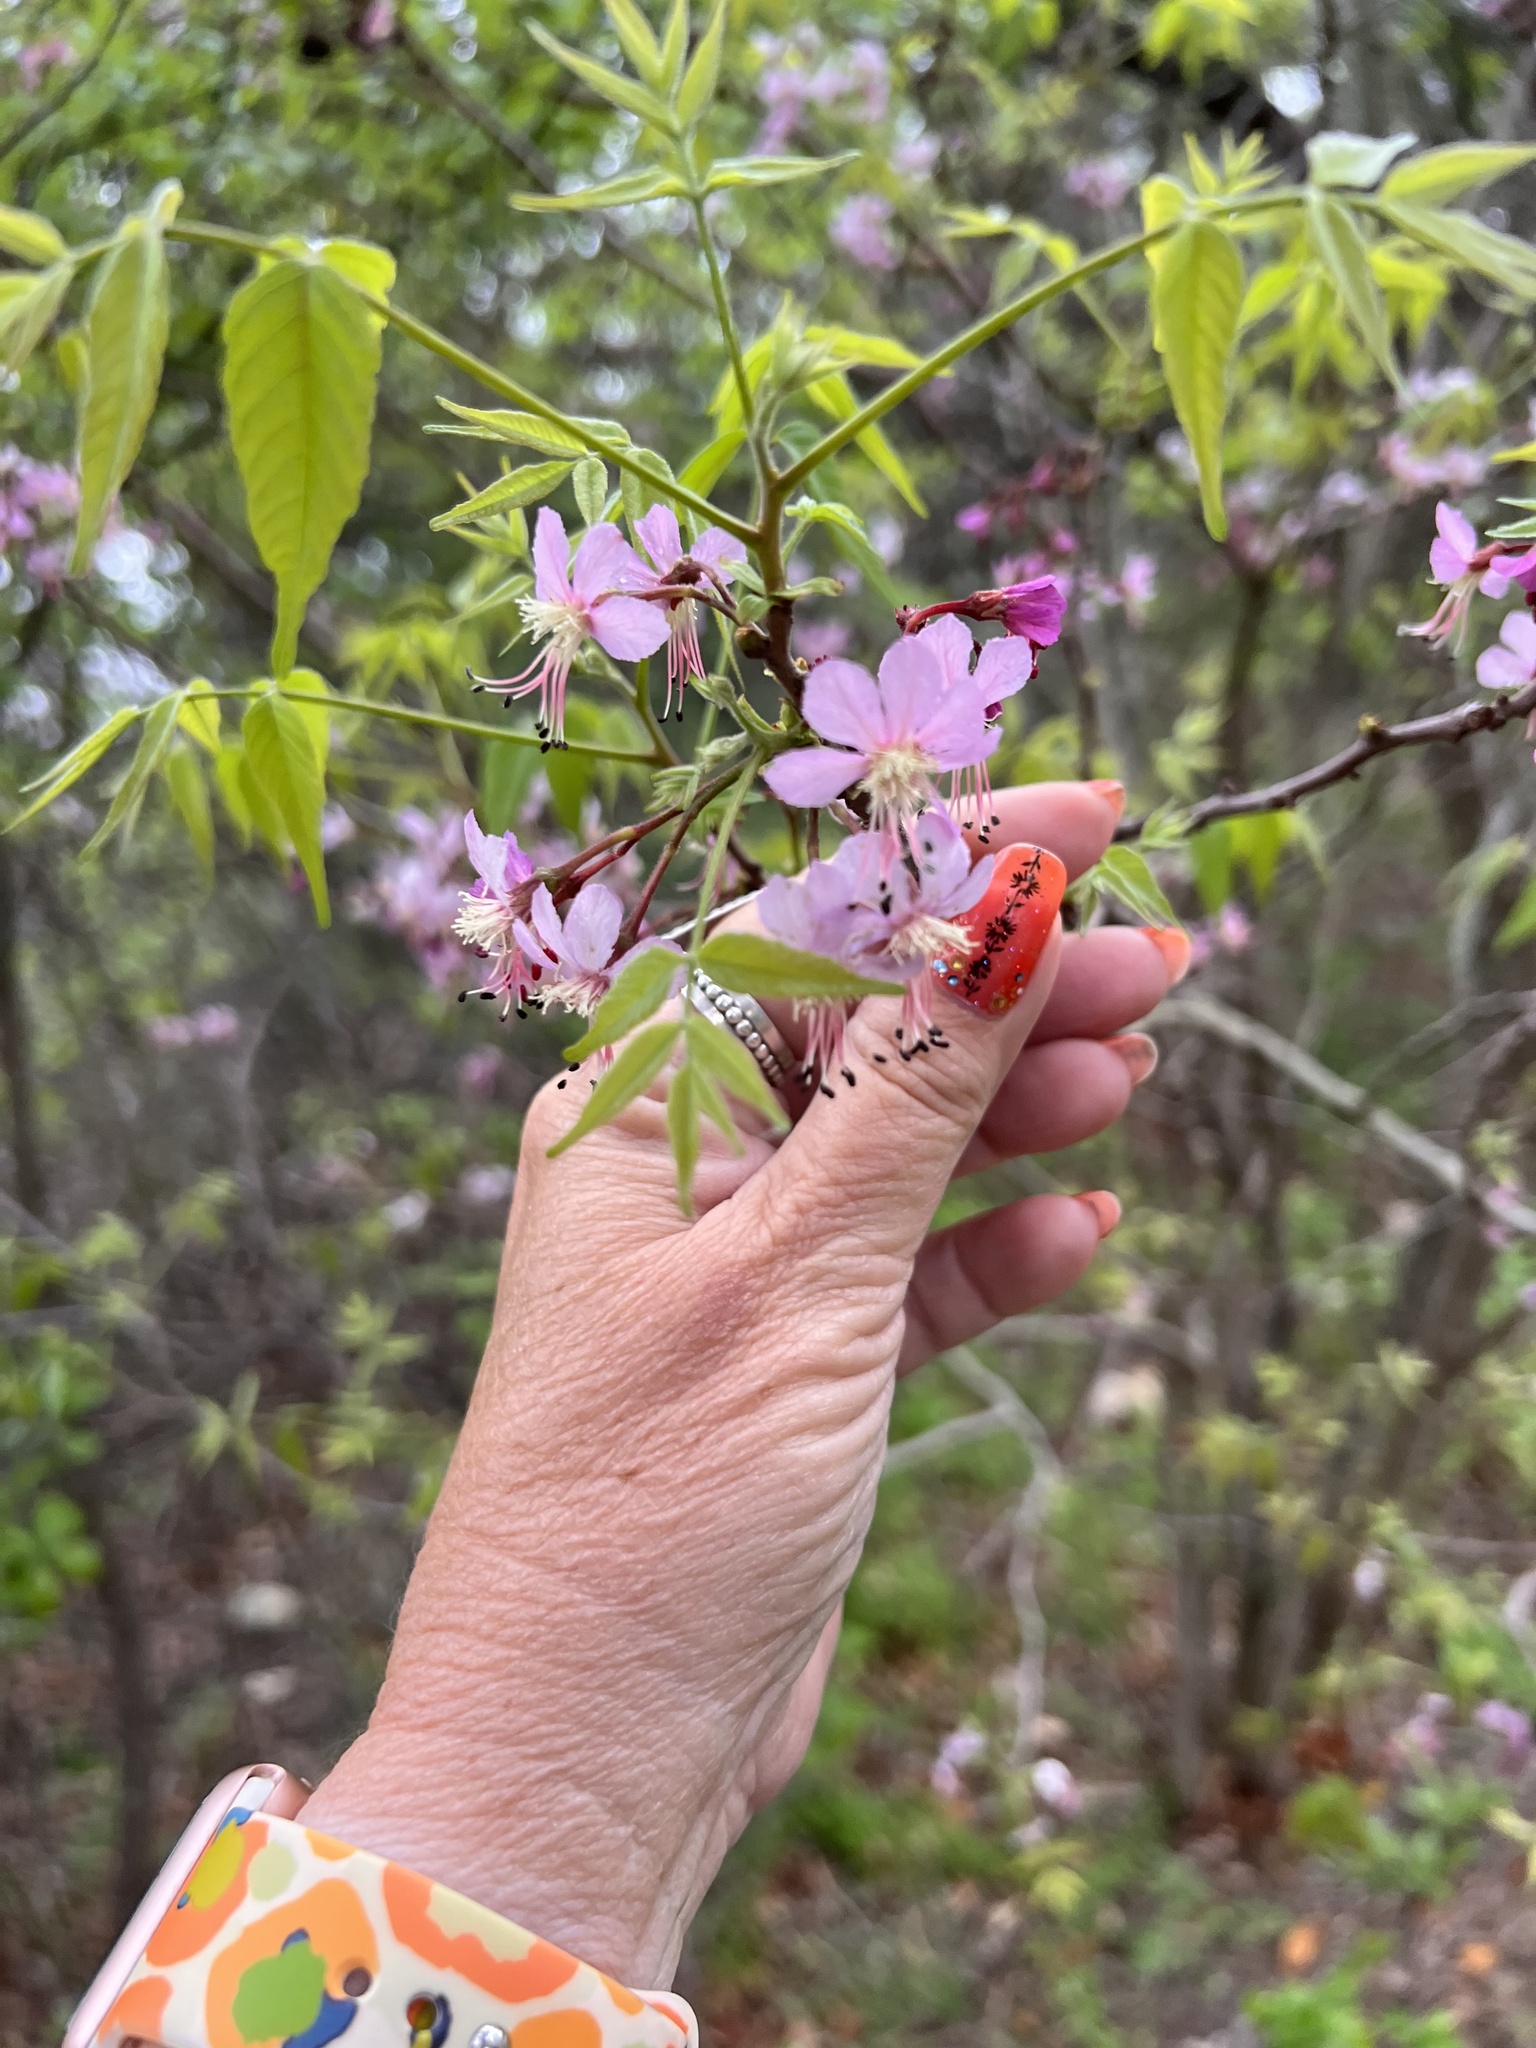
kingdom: Plantae
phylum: Tracheophyta
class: Magnoliopsida
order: Sapindales
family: Sapindaceae
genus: Ungnadia
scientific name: Ungnadia speciosa
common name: Texas-buckeye
